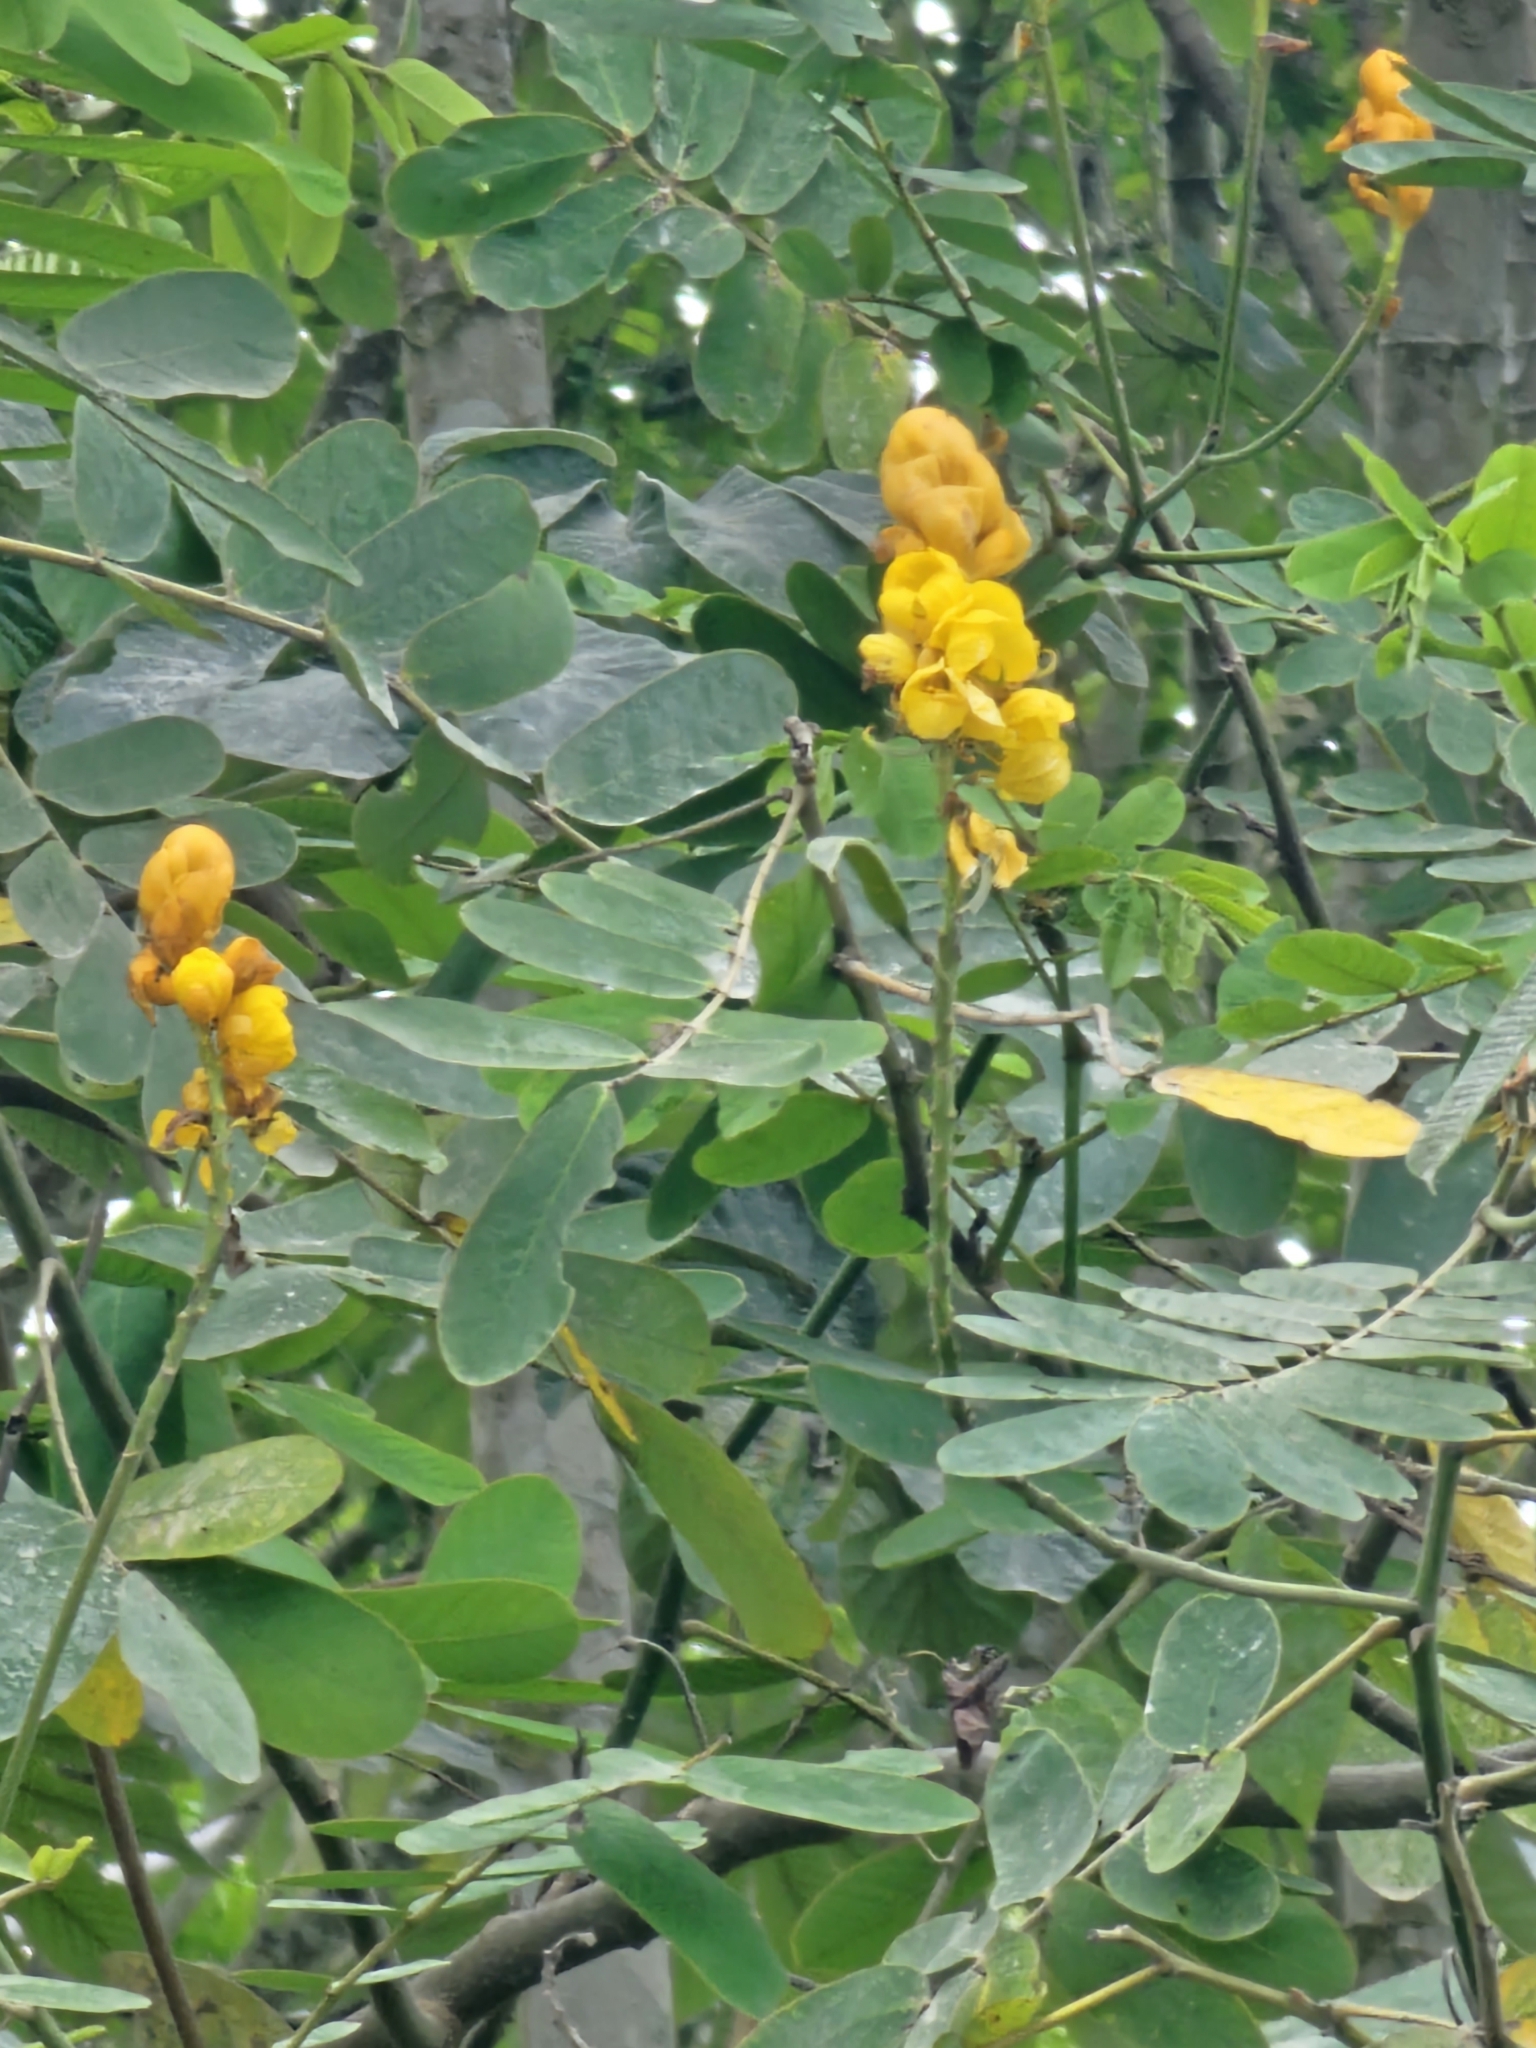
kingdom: Plantae
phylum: Tracheophyta
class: Magnoliopsida
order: Fabales
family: Fabaceae
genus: Senna
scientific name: Senna reticulata
